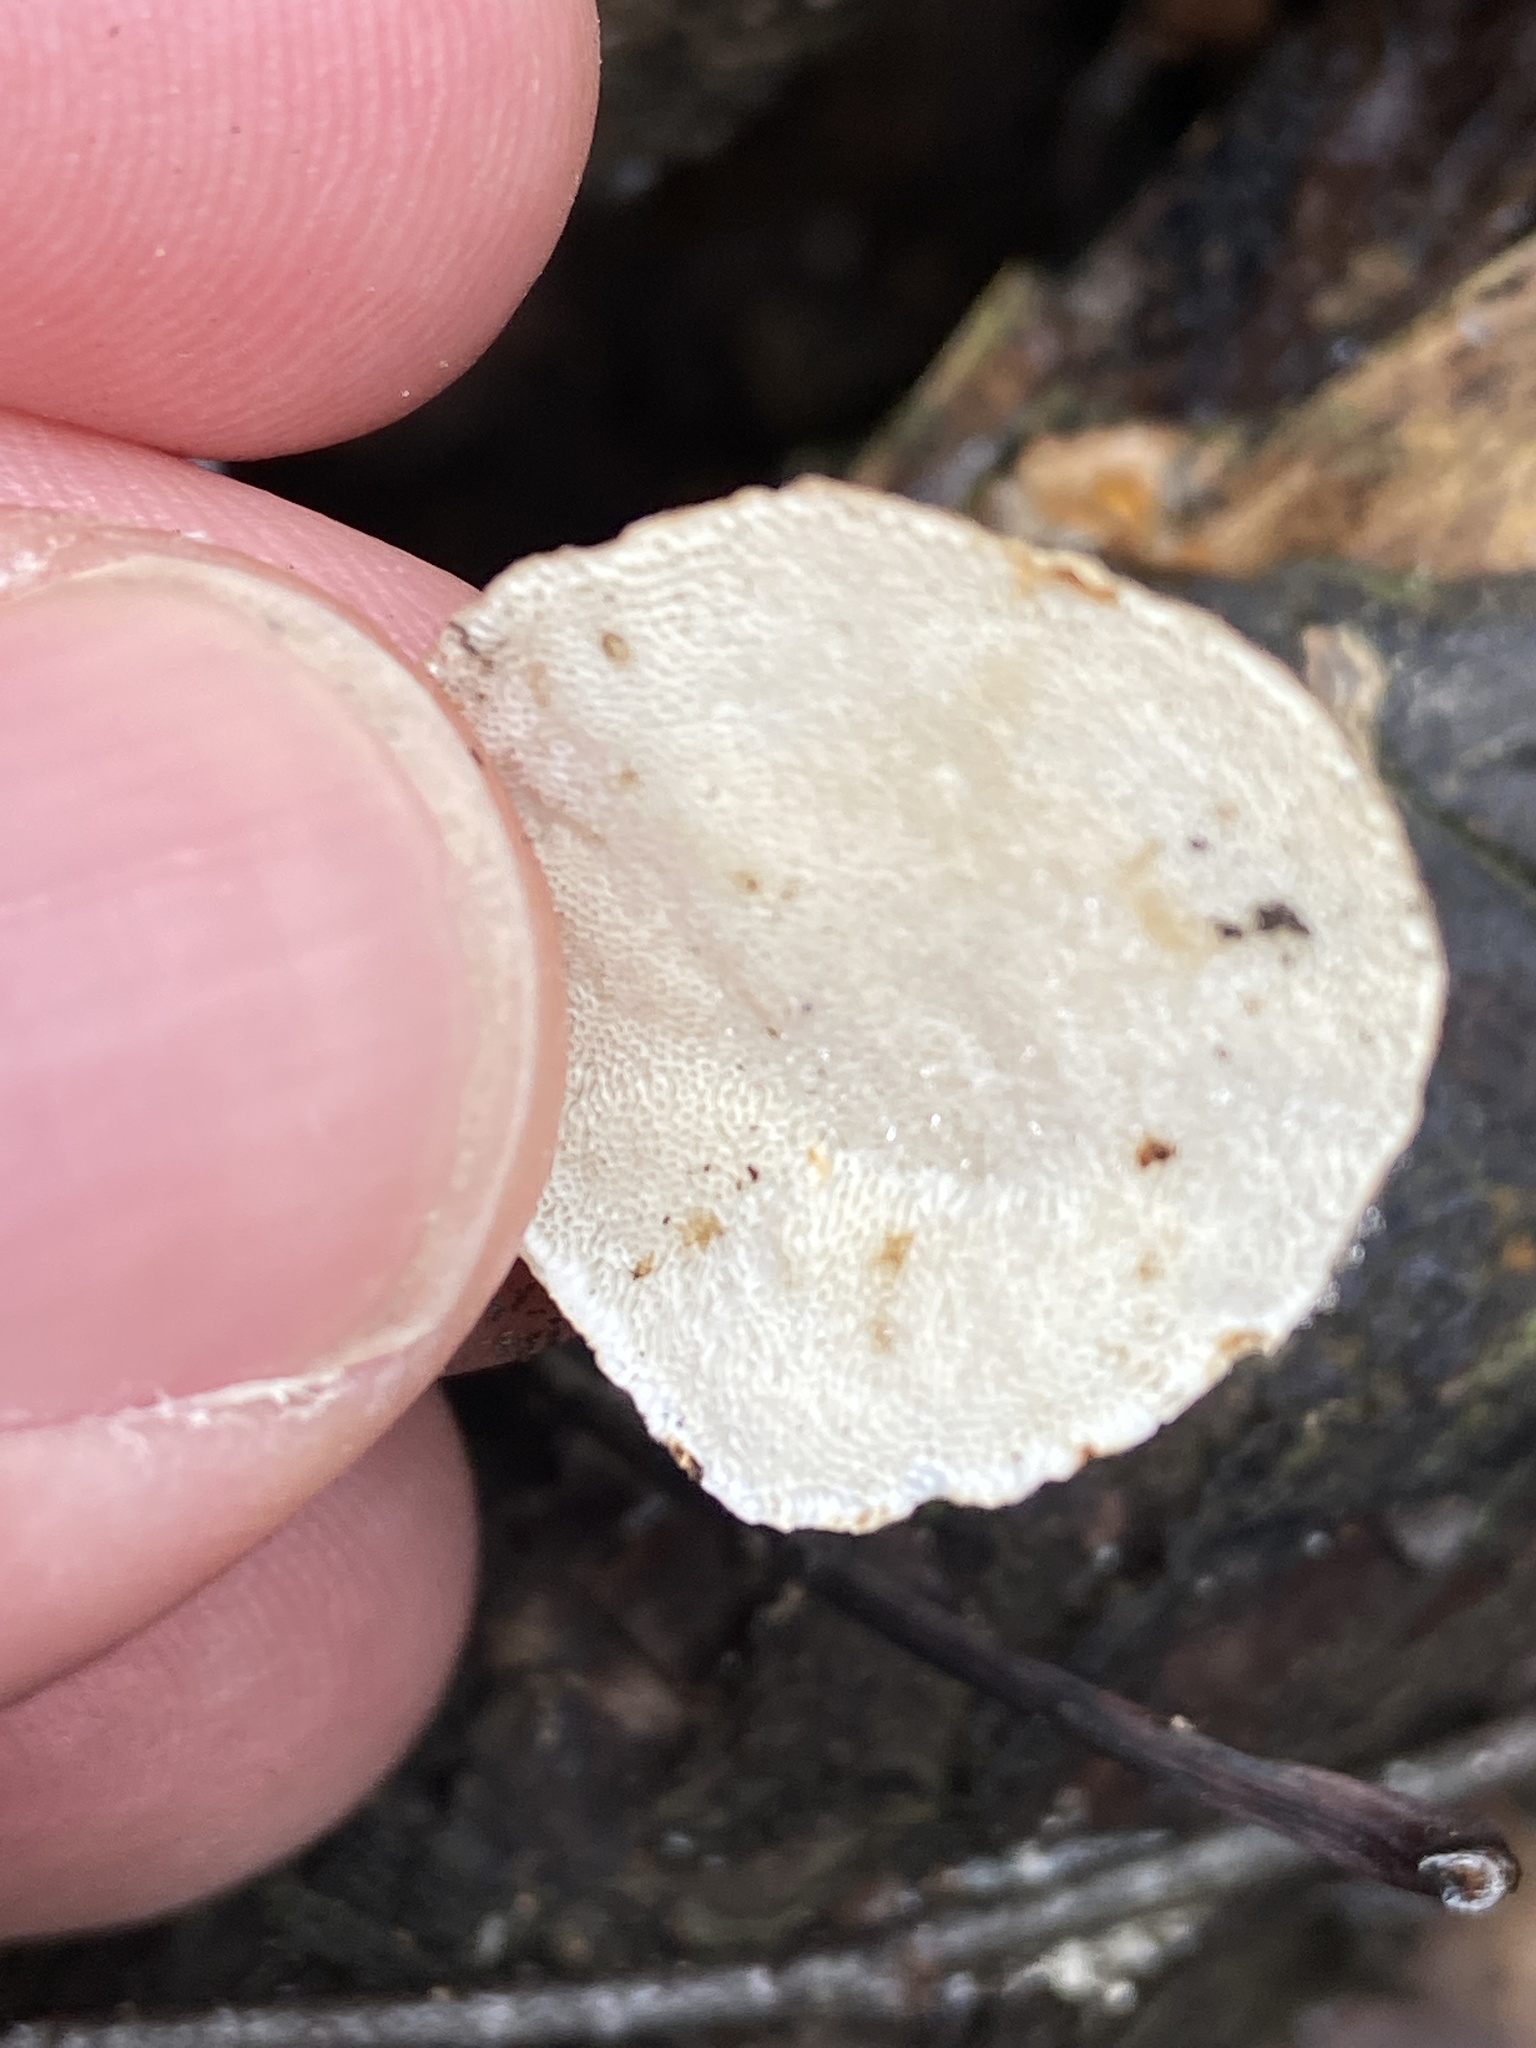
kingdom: Fungi
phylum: Basidiomycota
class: Agaricomycetes
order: Polyporales
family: Polyporaceae
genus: Trametes
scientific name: Trametes versicolor
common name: Turkeytail
